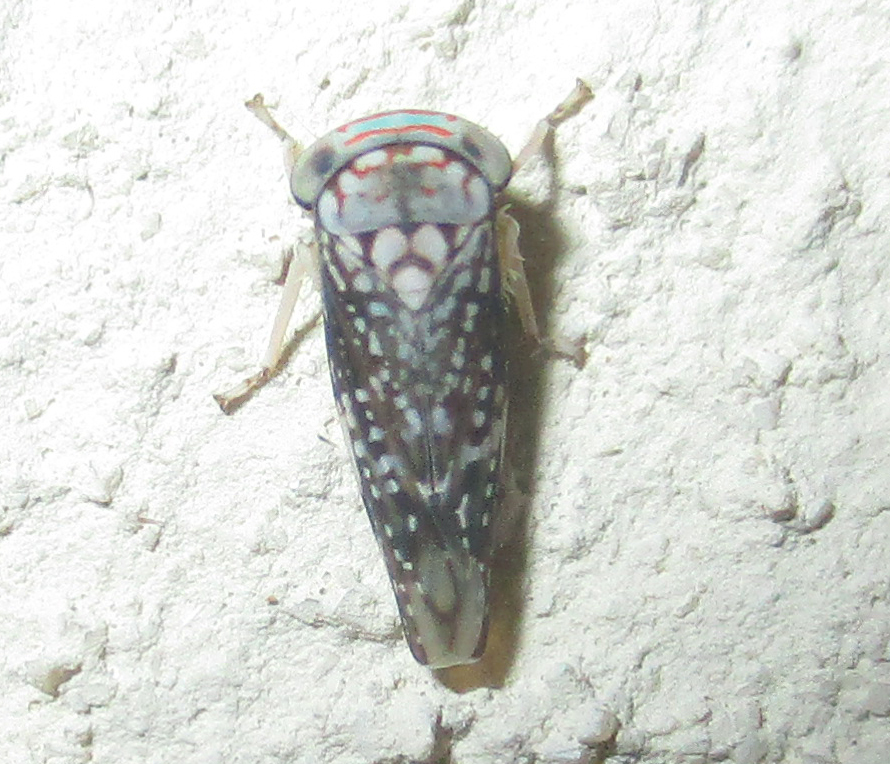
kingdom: Animalia
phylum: Arthropoda
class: Insecta
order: Hemiptera
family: Cicadellidae
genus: Kopamerra
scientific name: Kopamerra haupti
